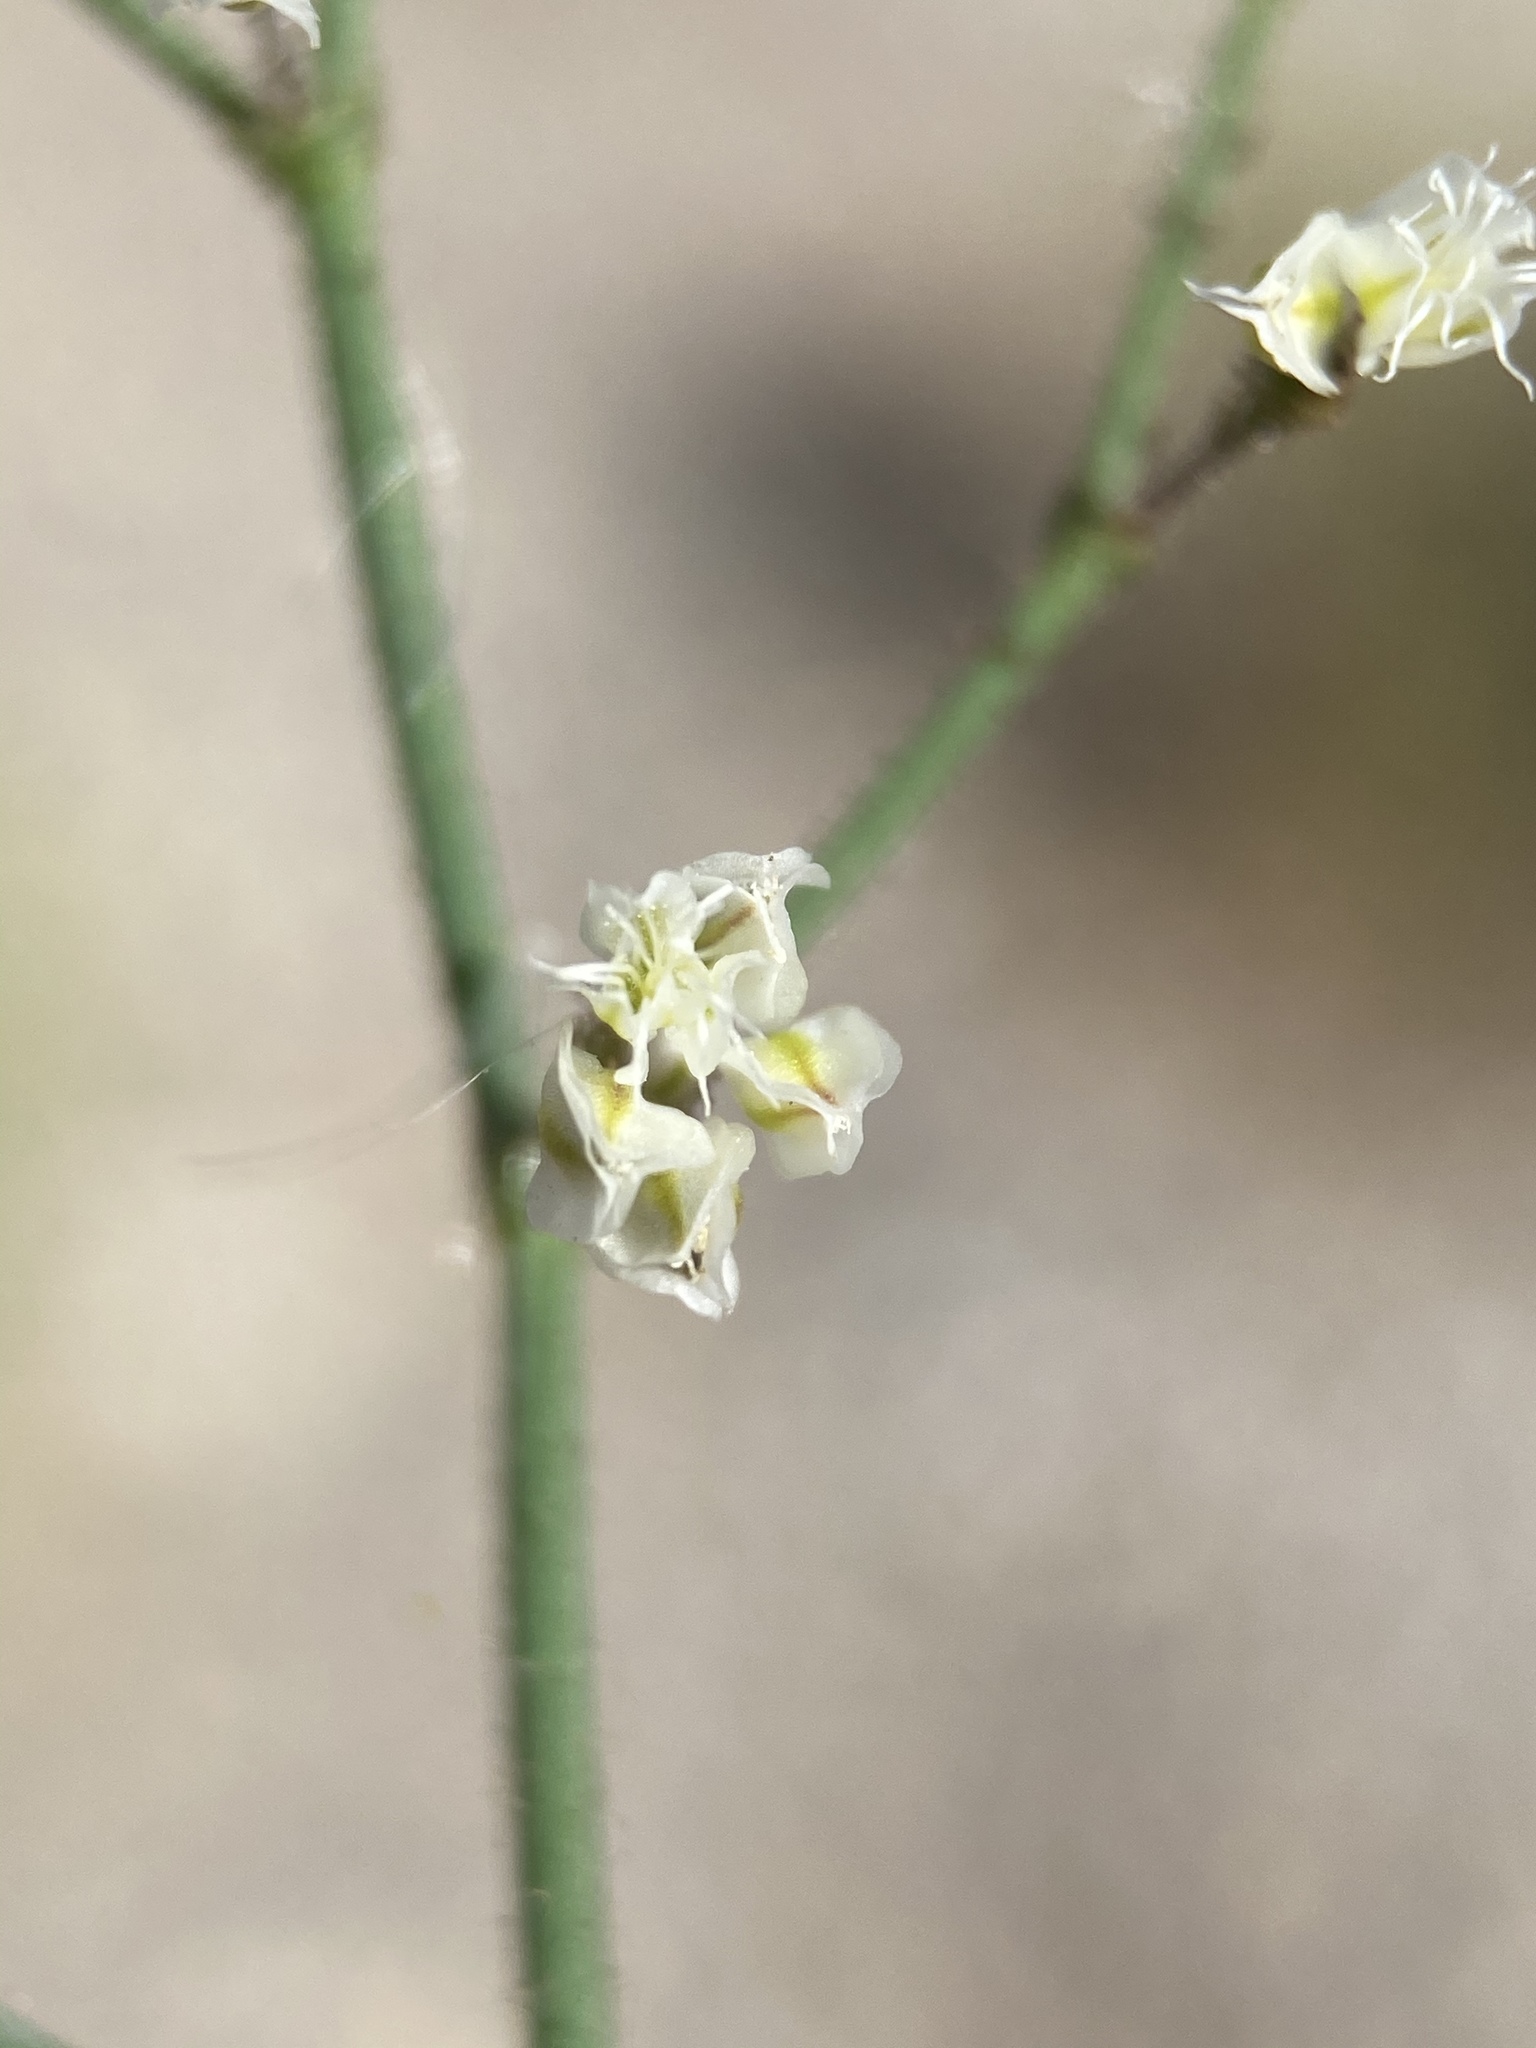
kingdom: Plantae
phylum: Tracheophyta
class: Magnoliopsida
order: Caryophyllales
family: Polygonaceae
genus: Eriogonum
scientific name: Eriogonum brachypodum
